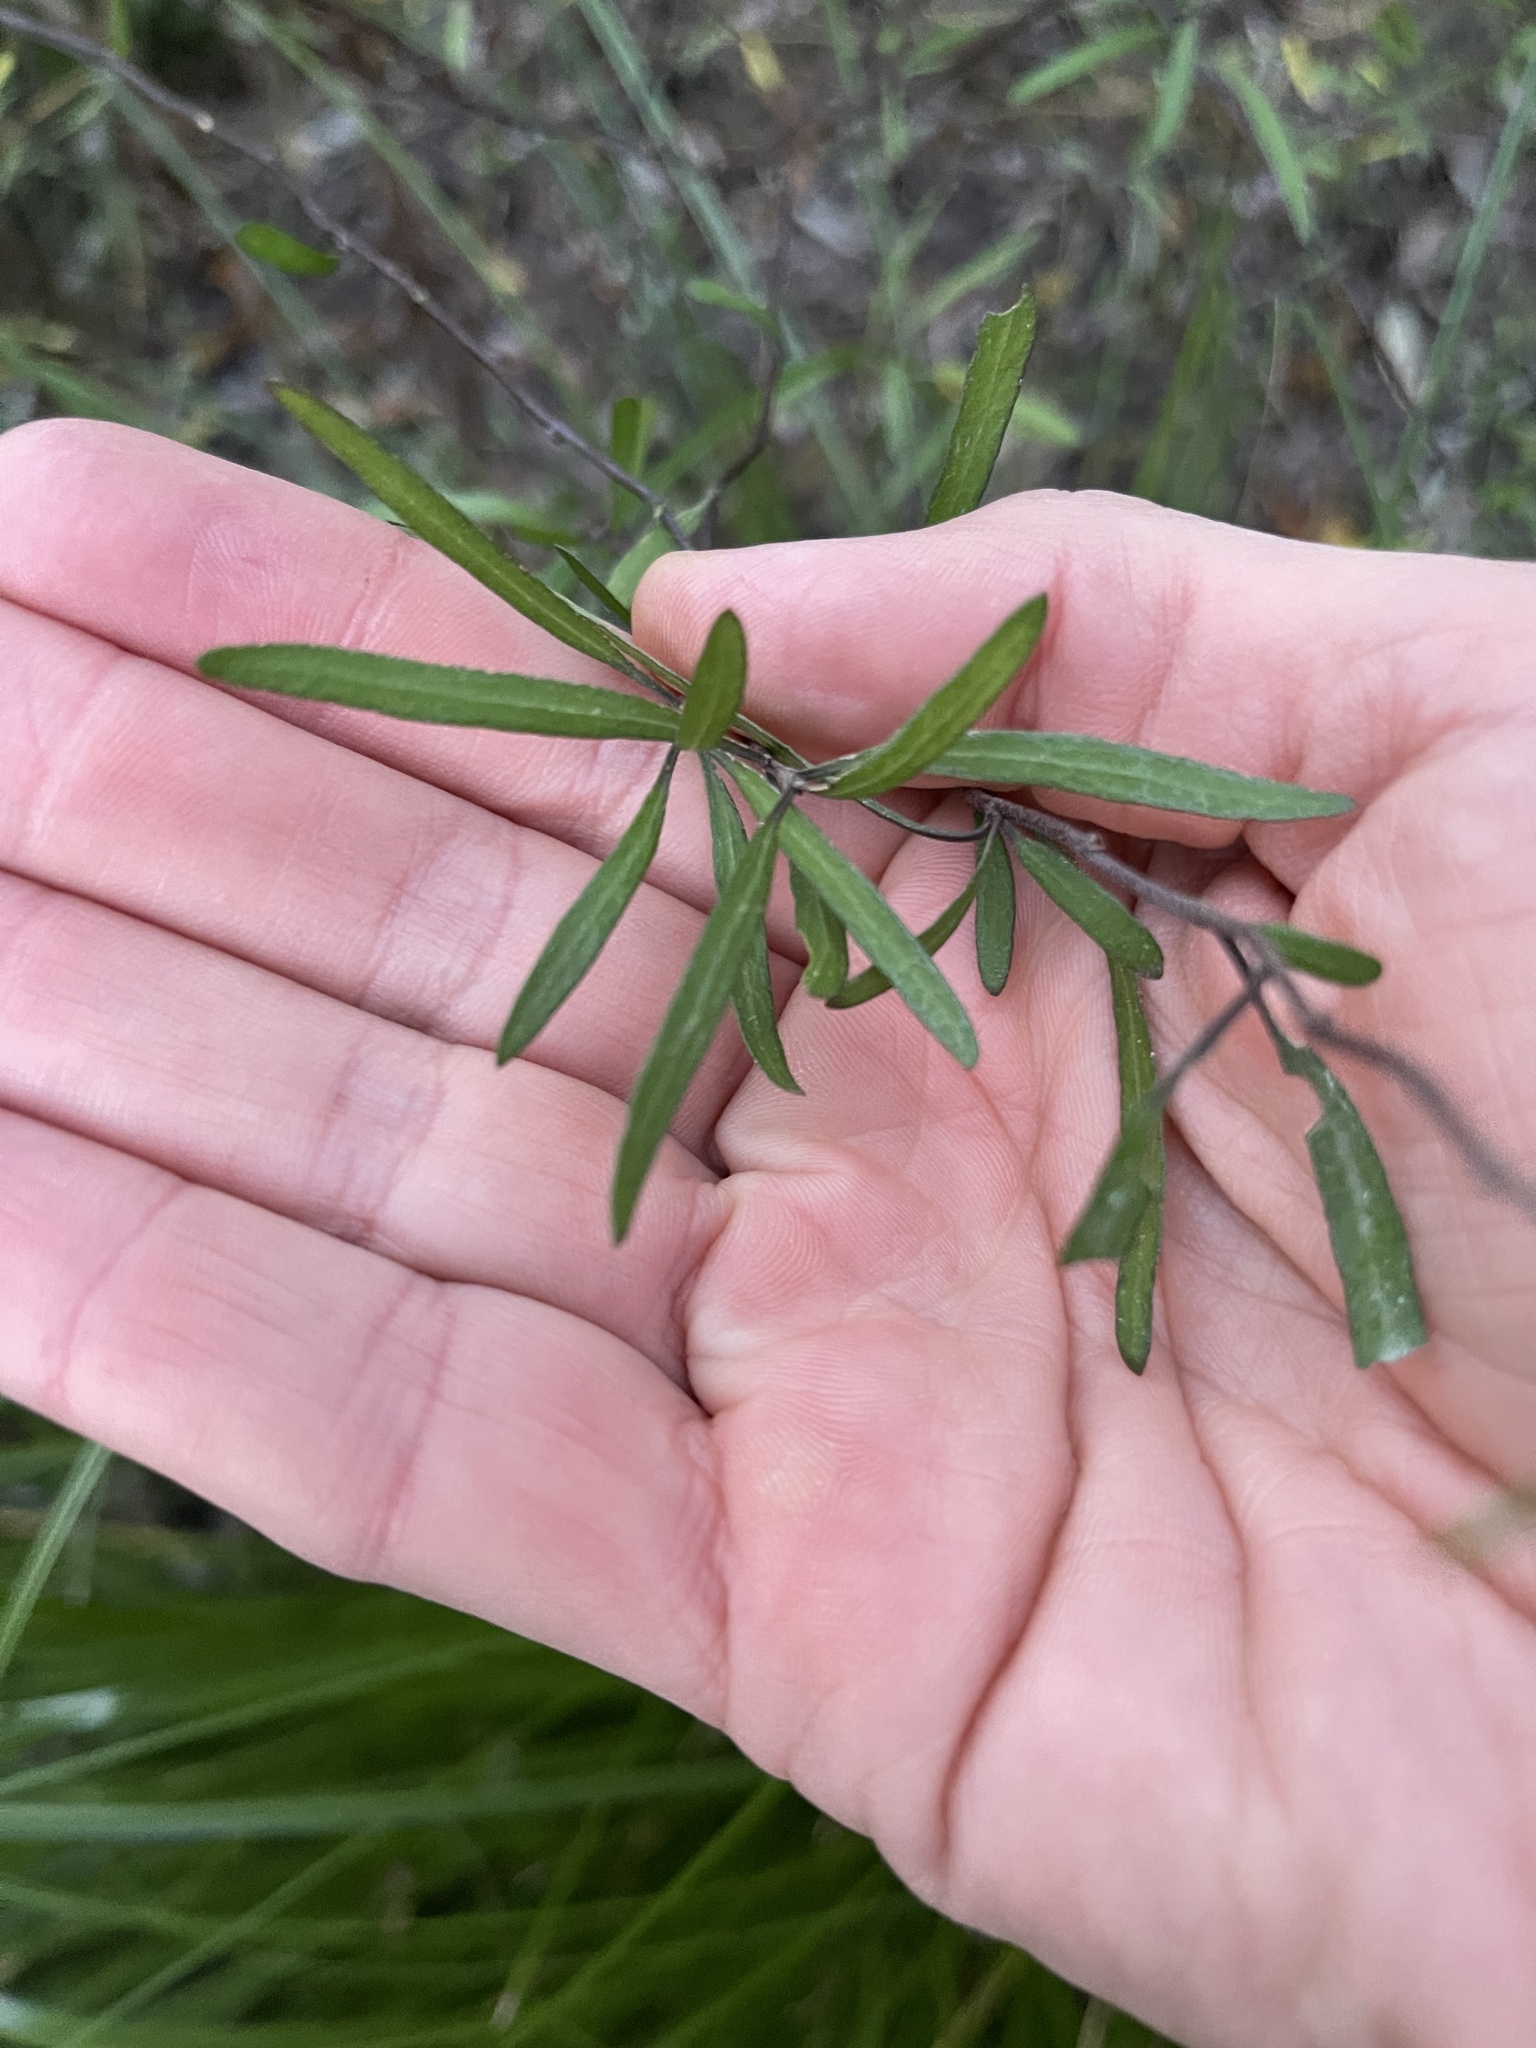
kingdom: Plantae
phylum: Tracheophyta
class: Magnoliopsida
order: Gentianales
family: Rubiaceae
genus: Coprosma
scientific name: Coprosma linariifolia
